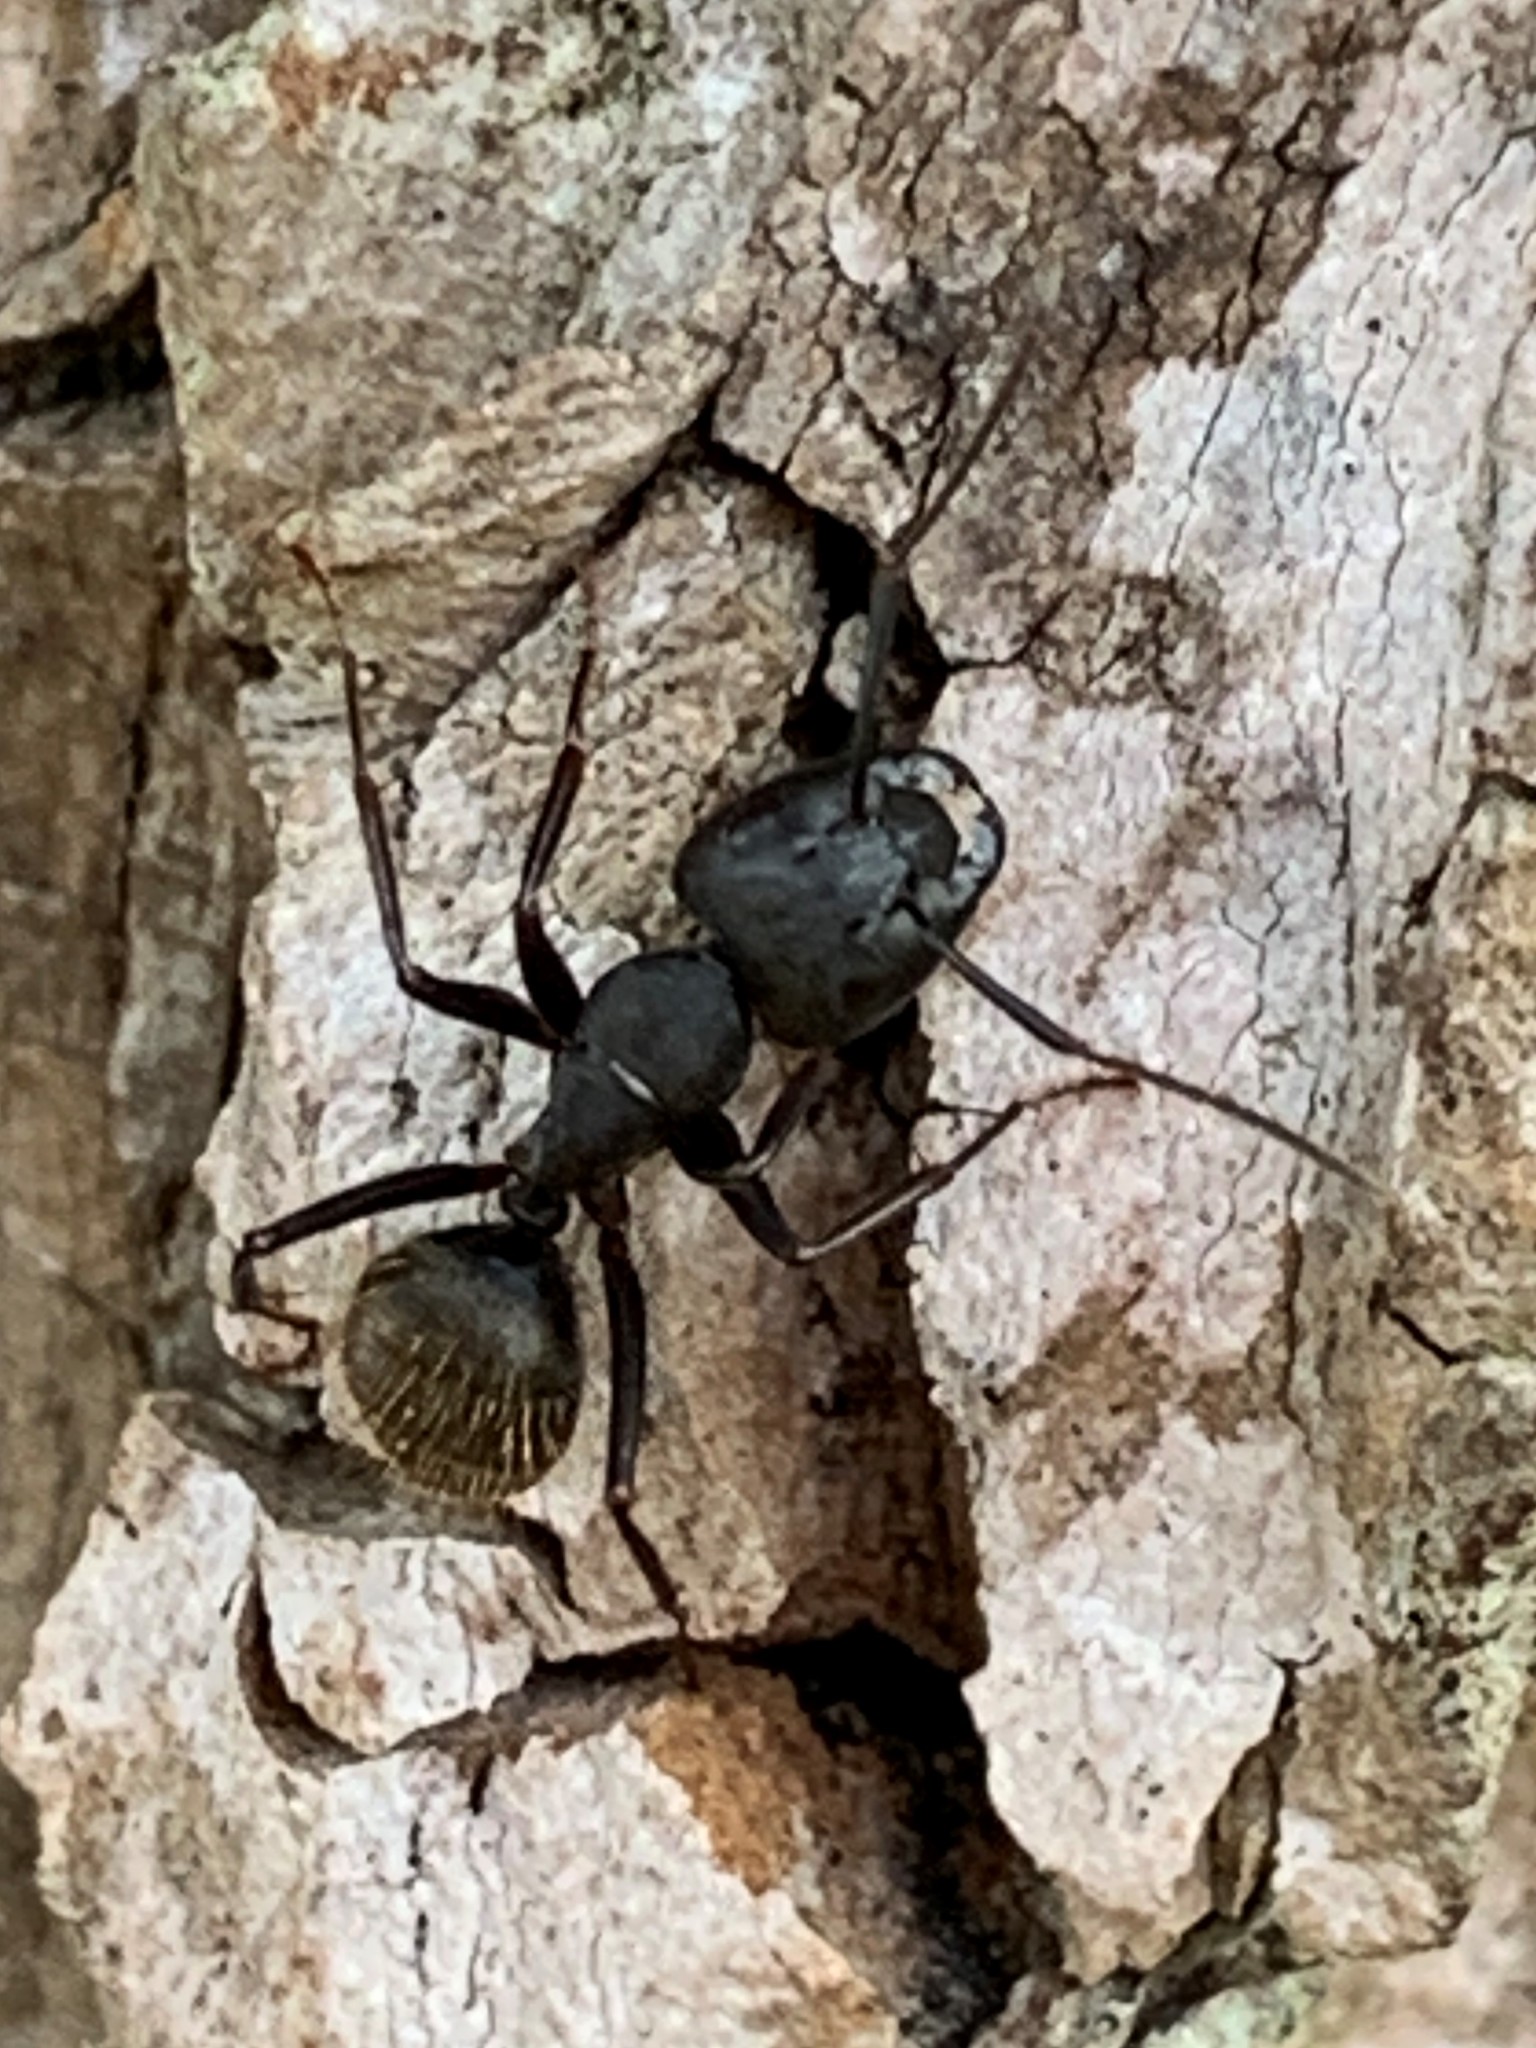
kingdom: Animalia
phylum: Arthropoda
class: Insecta
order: Hymenoptera
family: Formicidae
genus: Camponotus
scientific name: Camponotus pennsylvanicus
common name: Black carpenter ant
